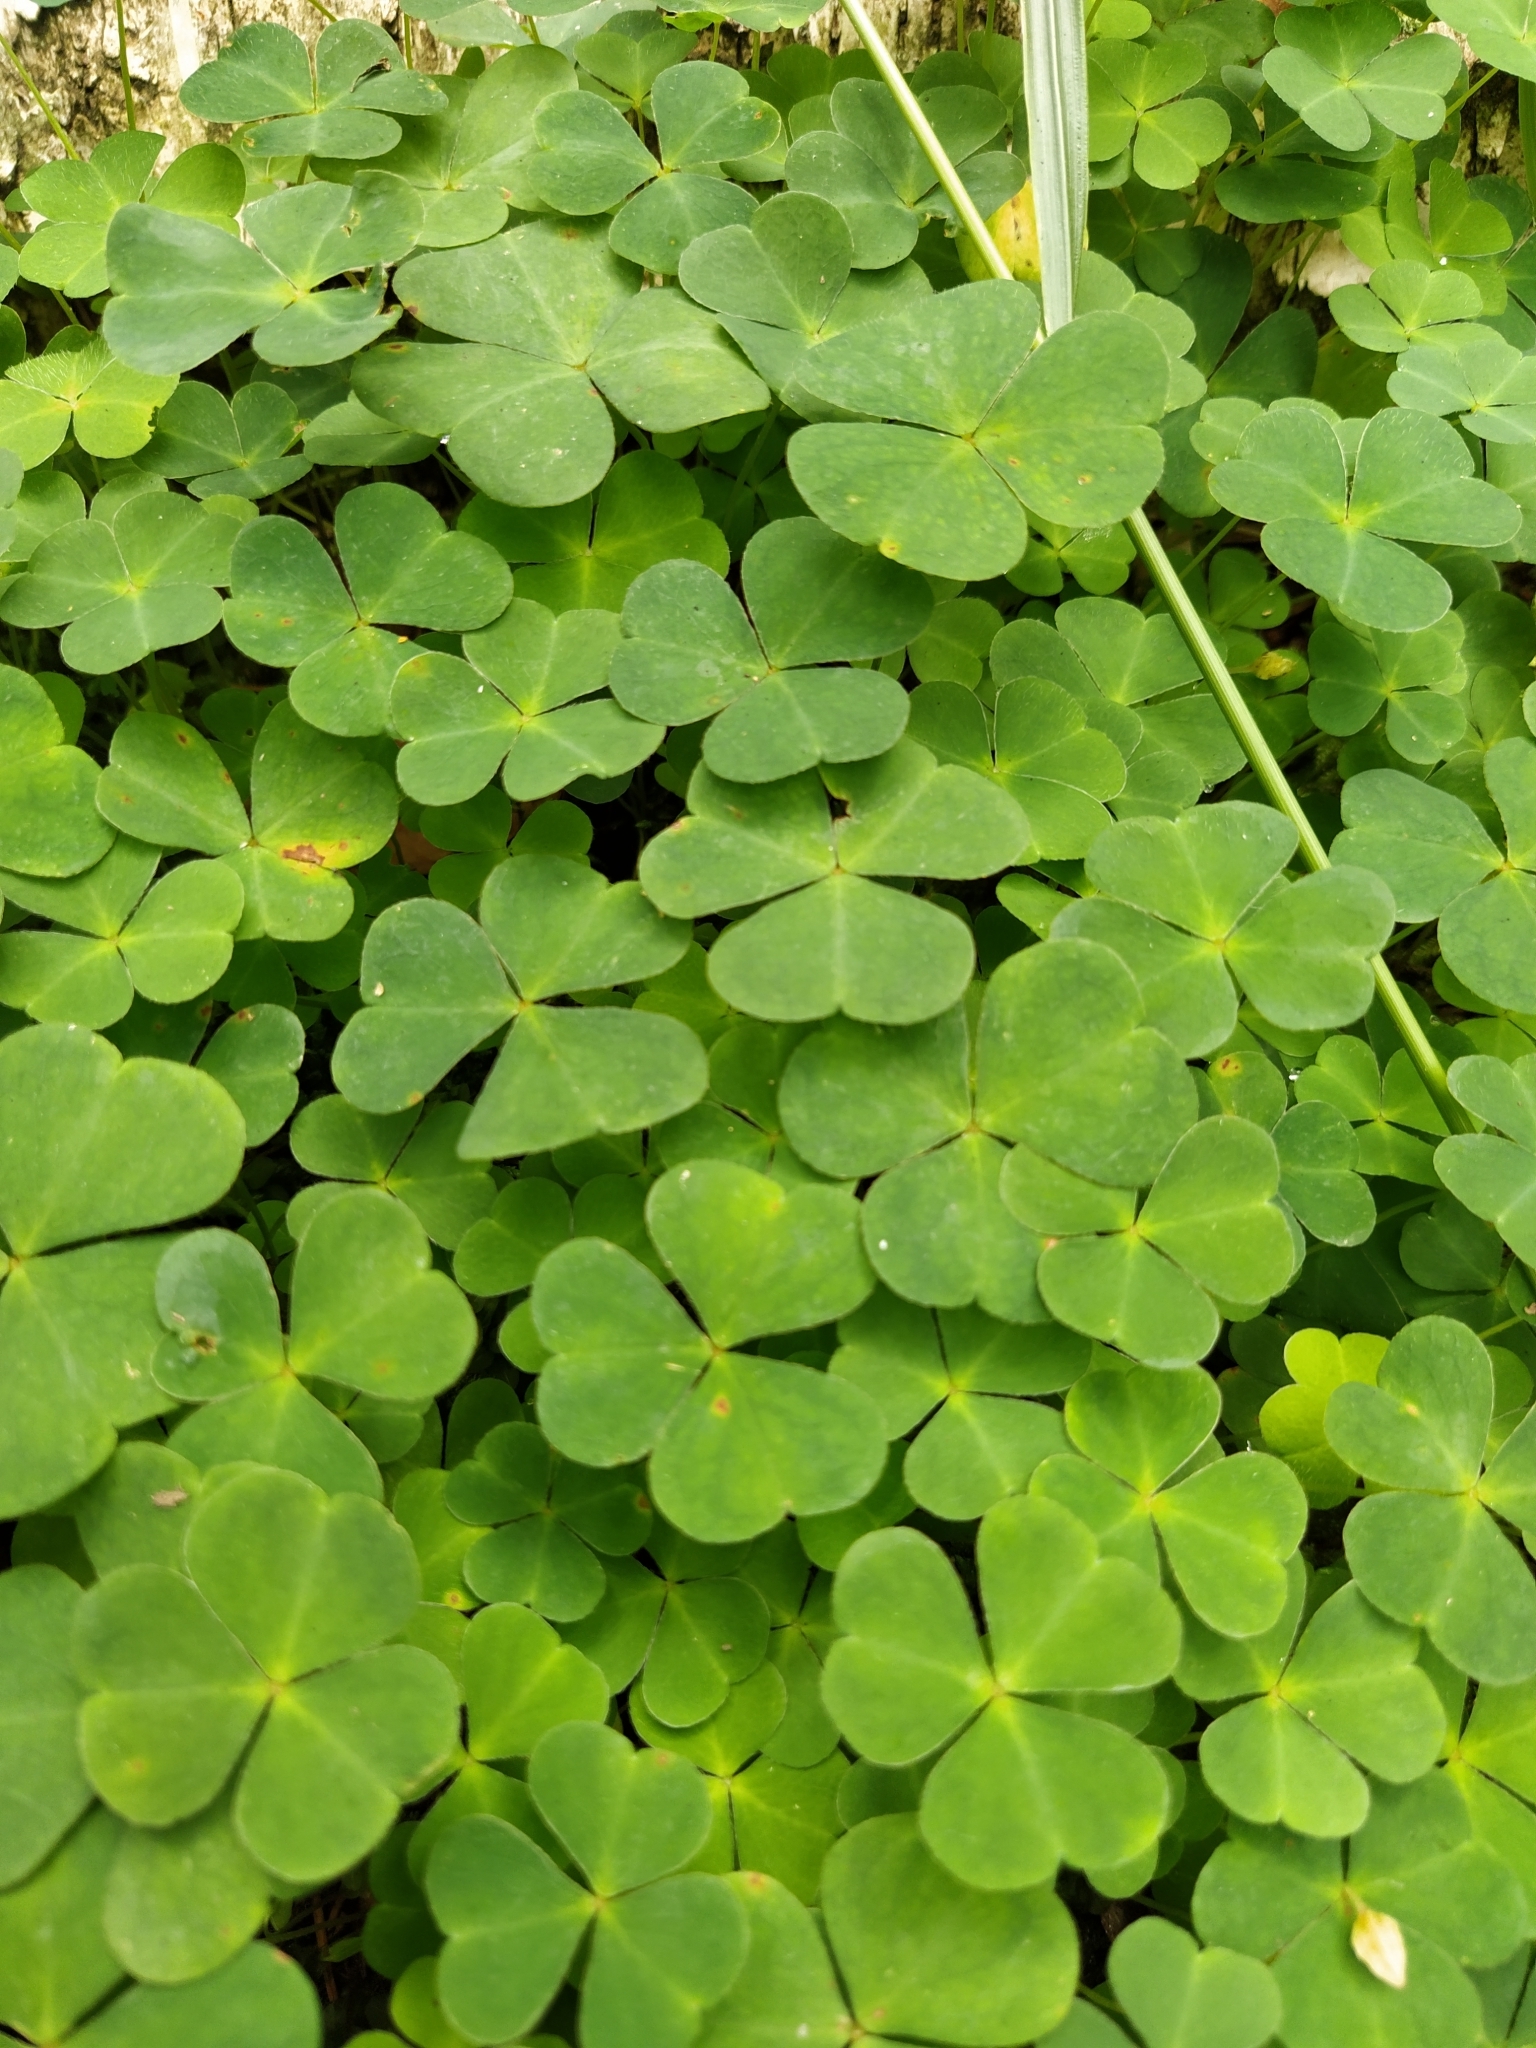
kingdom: Plantae
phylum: Tracheophyta
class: Magnoliopsida
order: Oxalidales
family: Oxalidaceae
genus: Oxalis
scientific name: Oxalis acetosella
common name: Wood-sorrel
